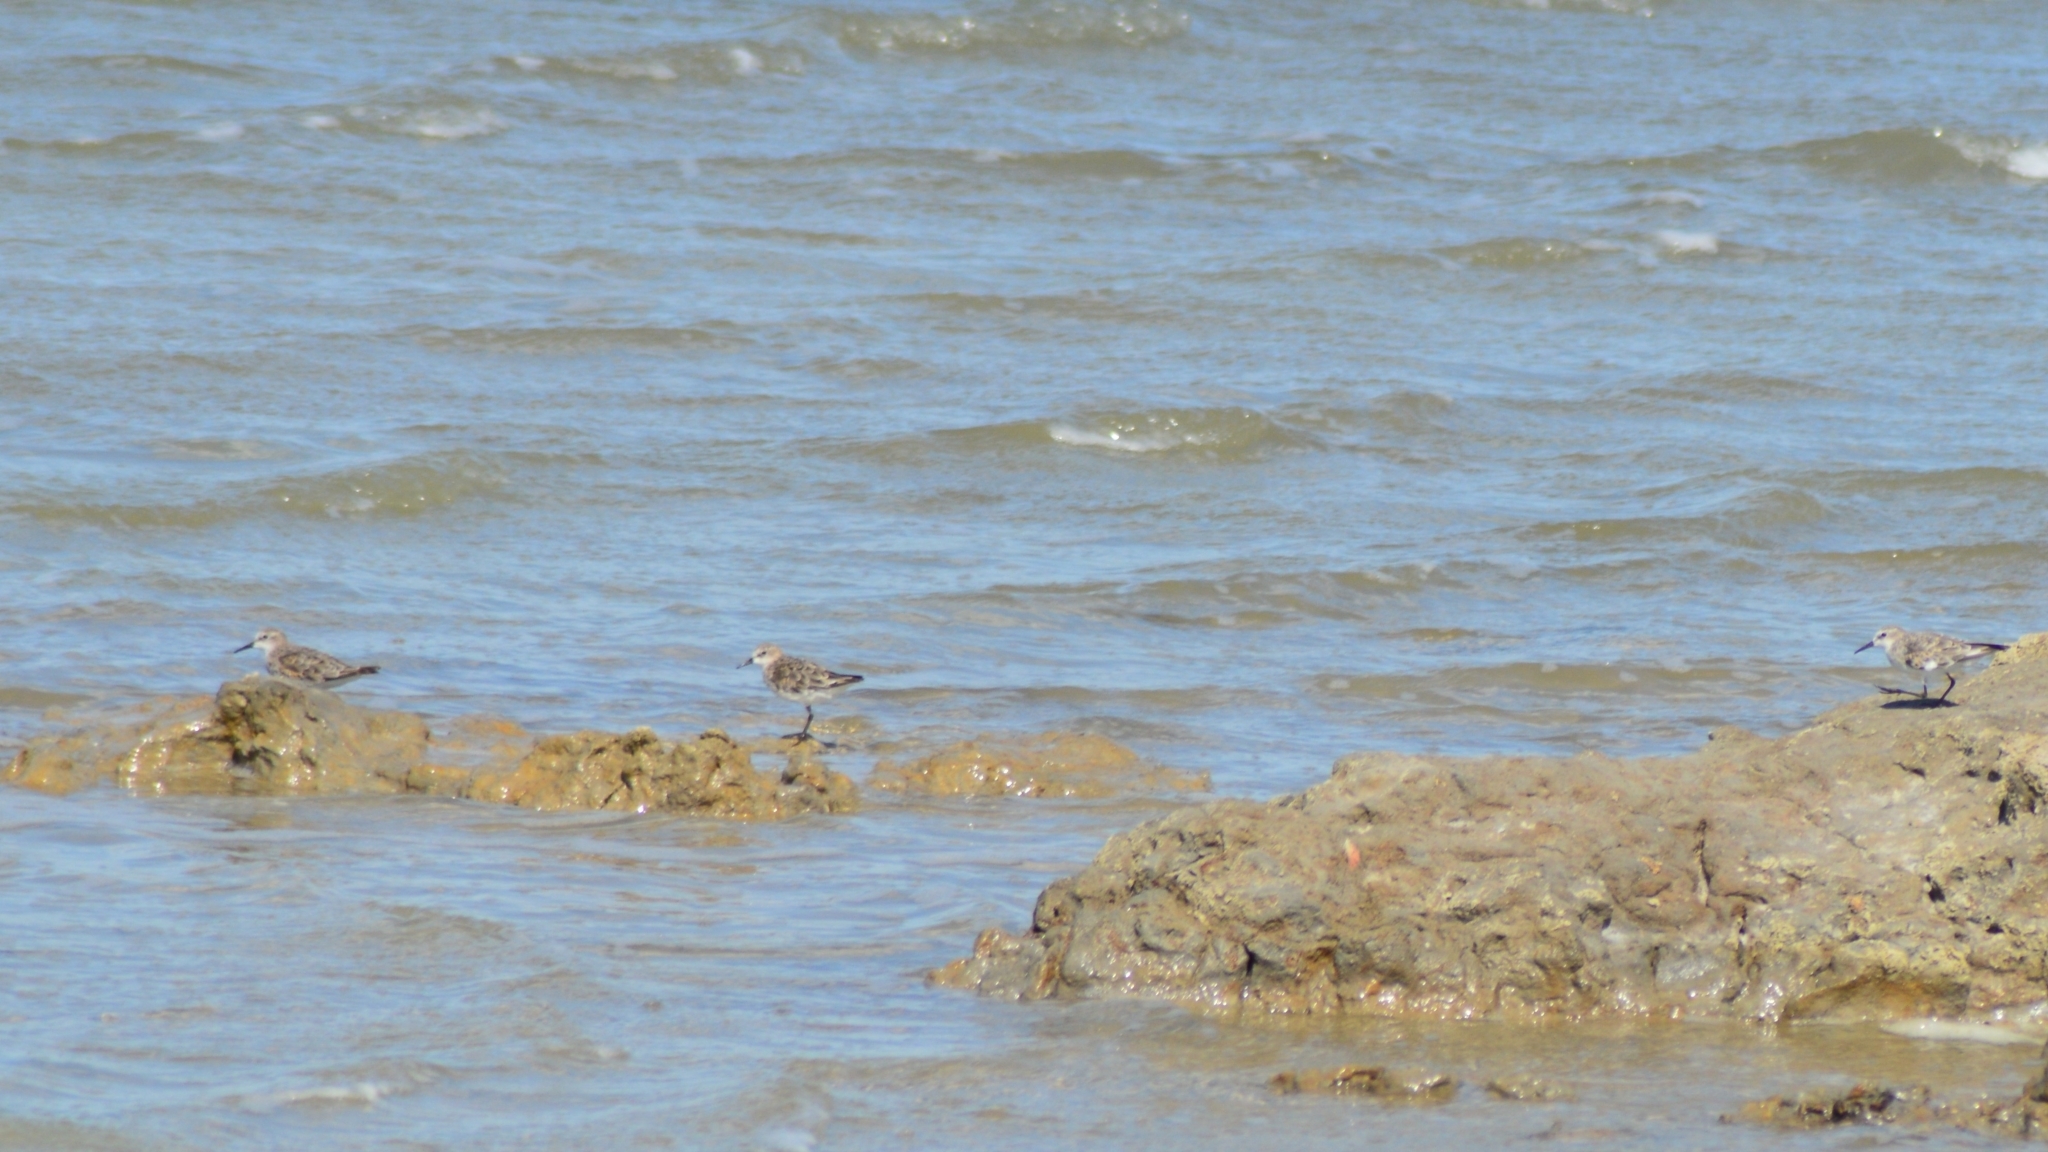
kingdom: Animalia
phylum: Chordata
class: Aves
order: Charadriiformes
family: Scolopacidae
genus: Calidris
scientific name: Calidris minuta
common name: Little stint
